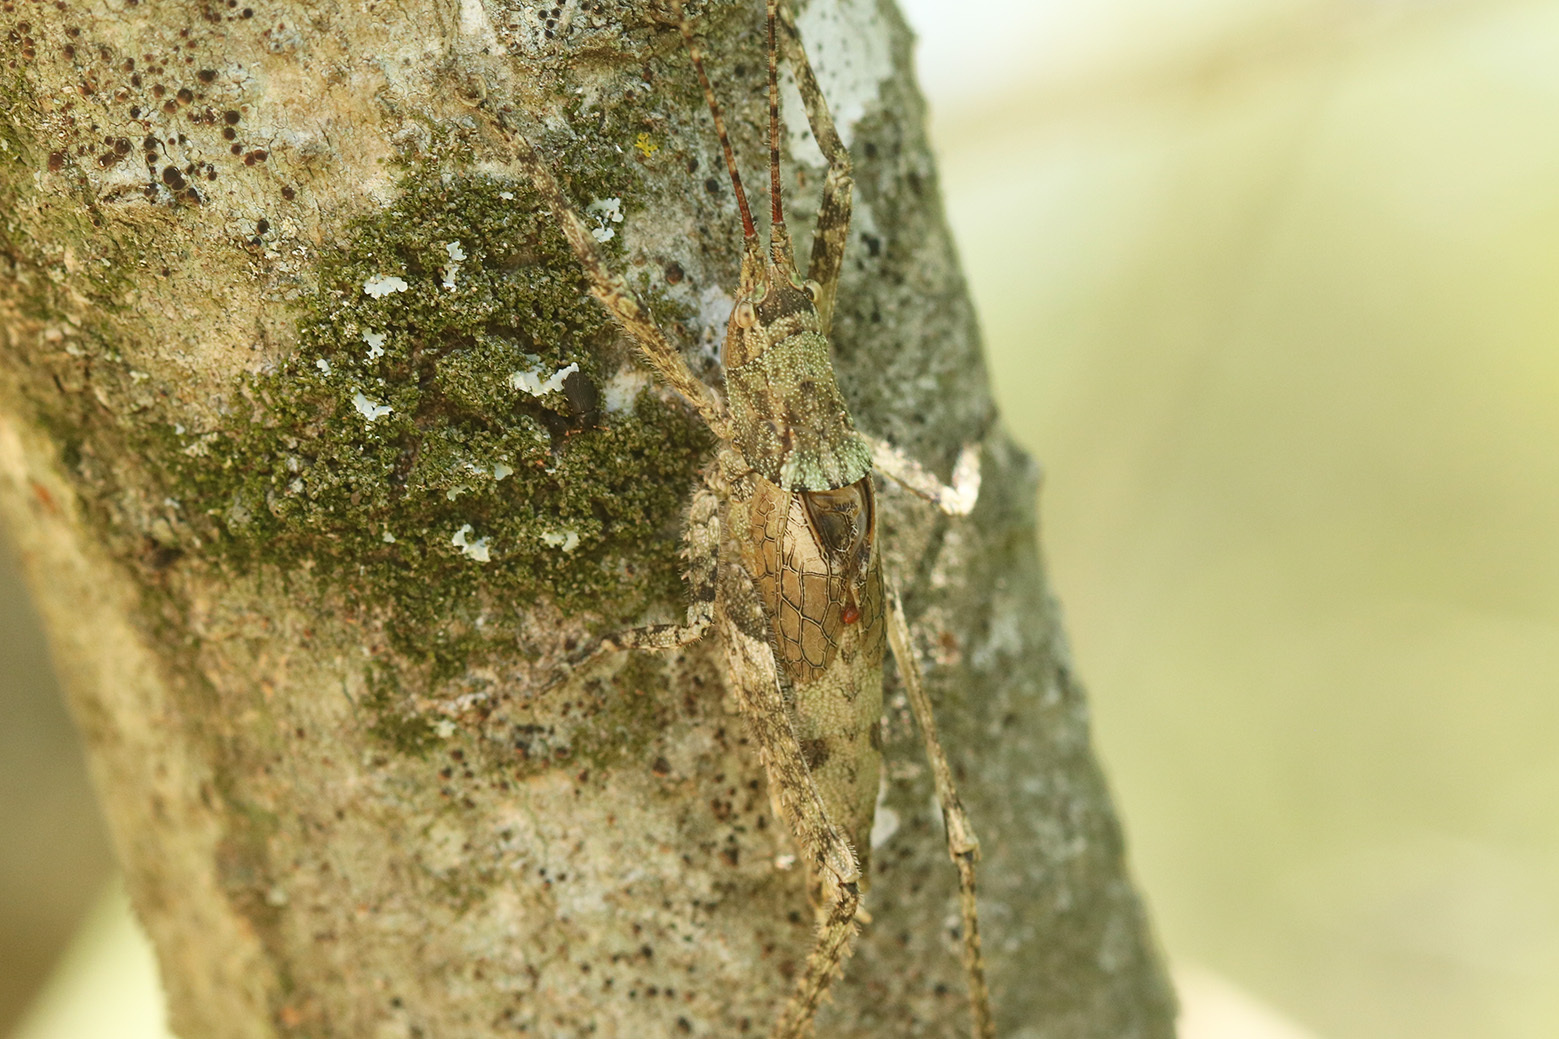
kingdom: Animalia
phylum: Arthropoda
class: Insecta
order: Orthoptera
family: Tettigoniidae
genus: Dasyscelus
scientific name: Dasyscelus normalis
